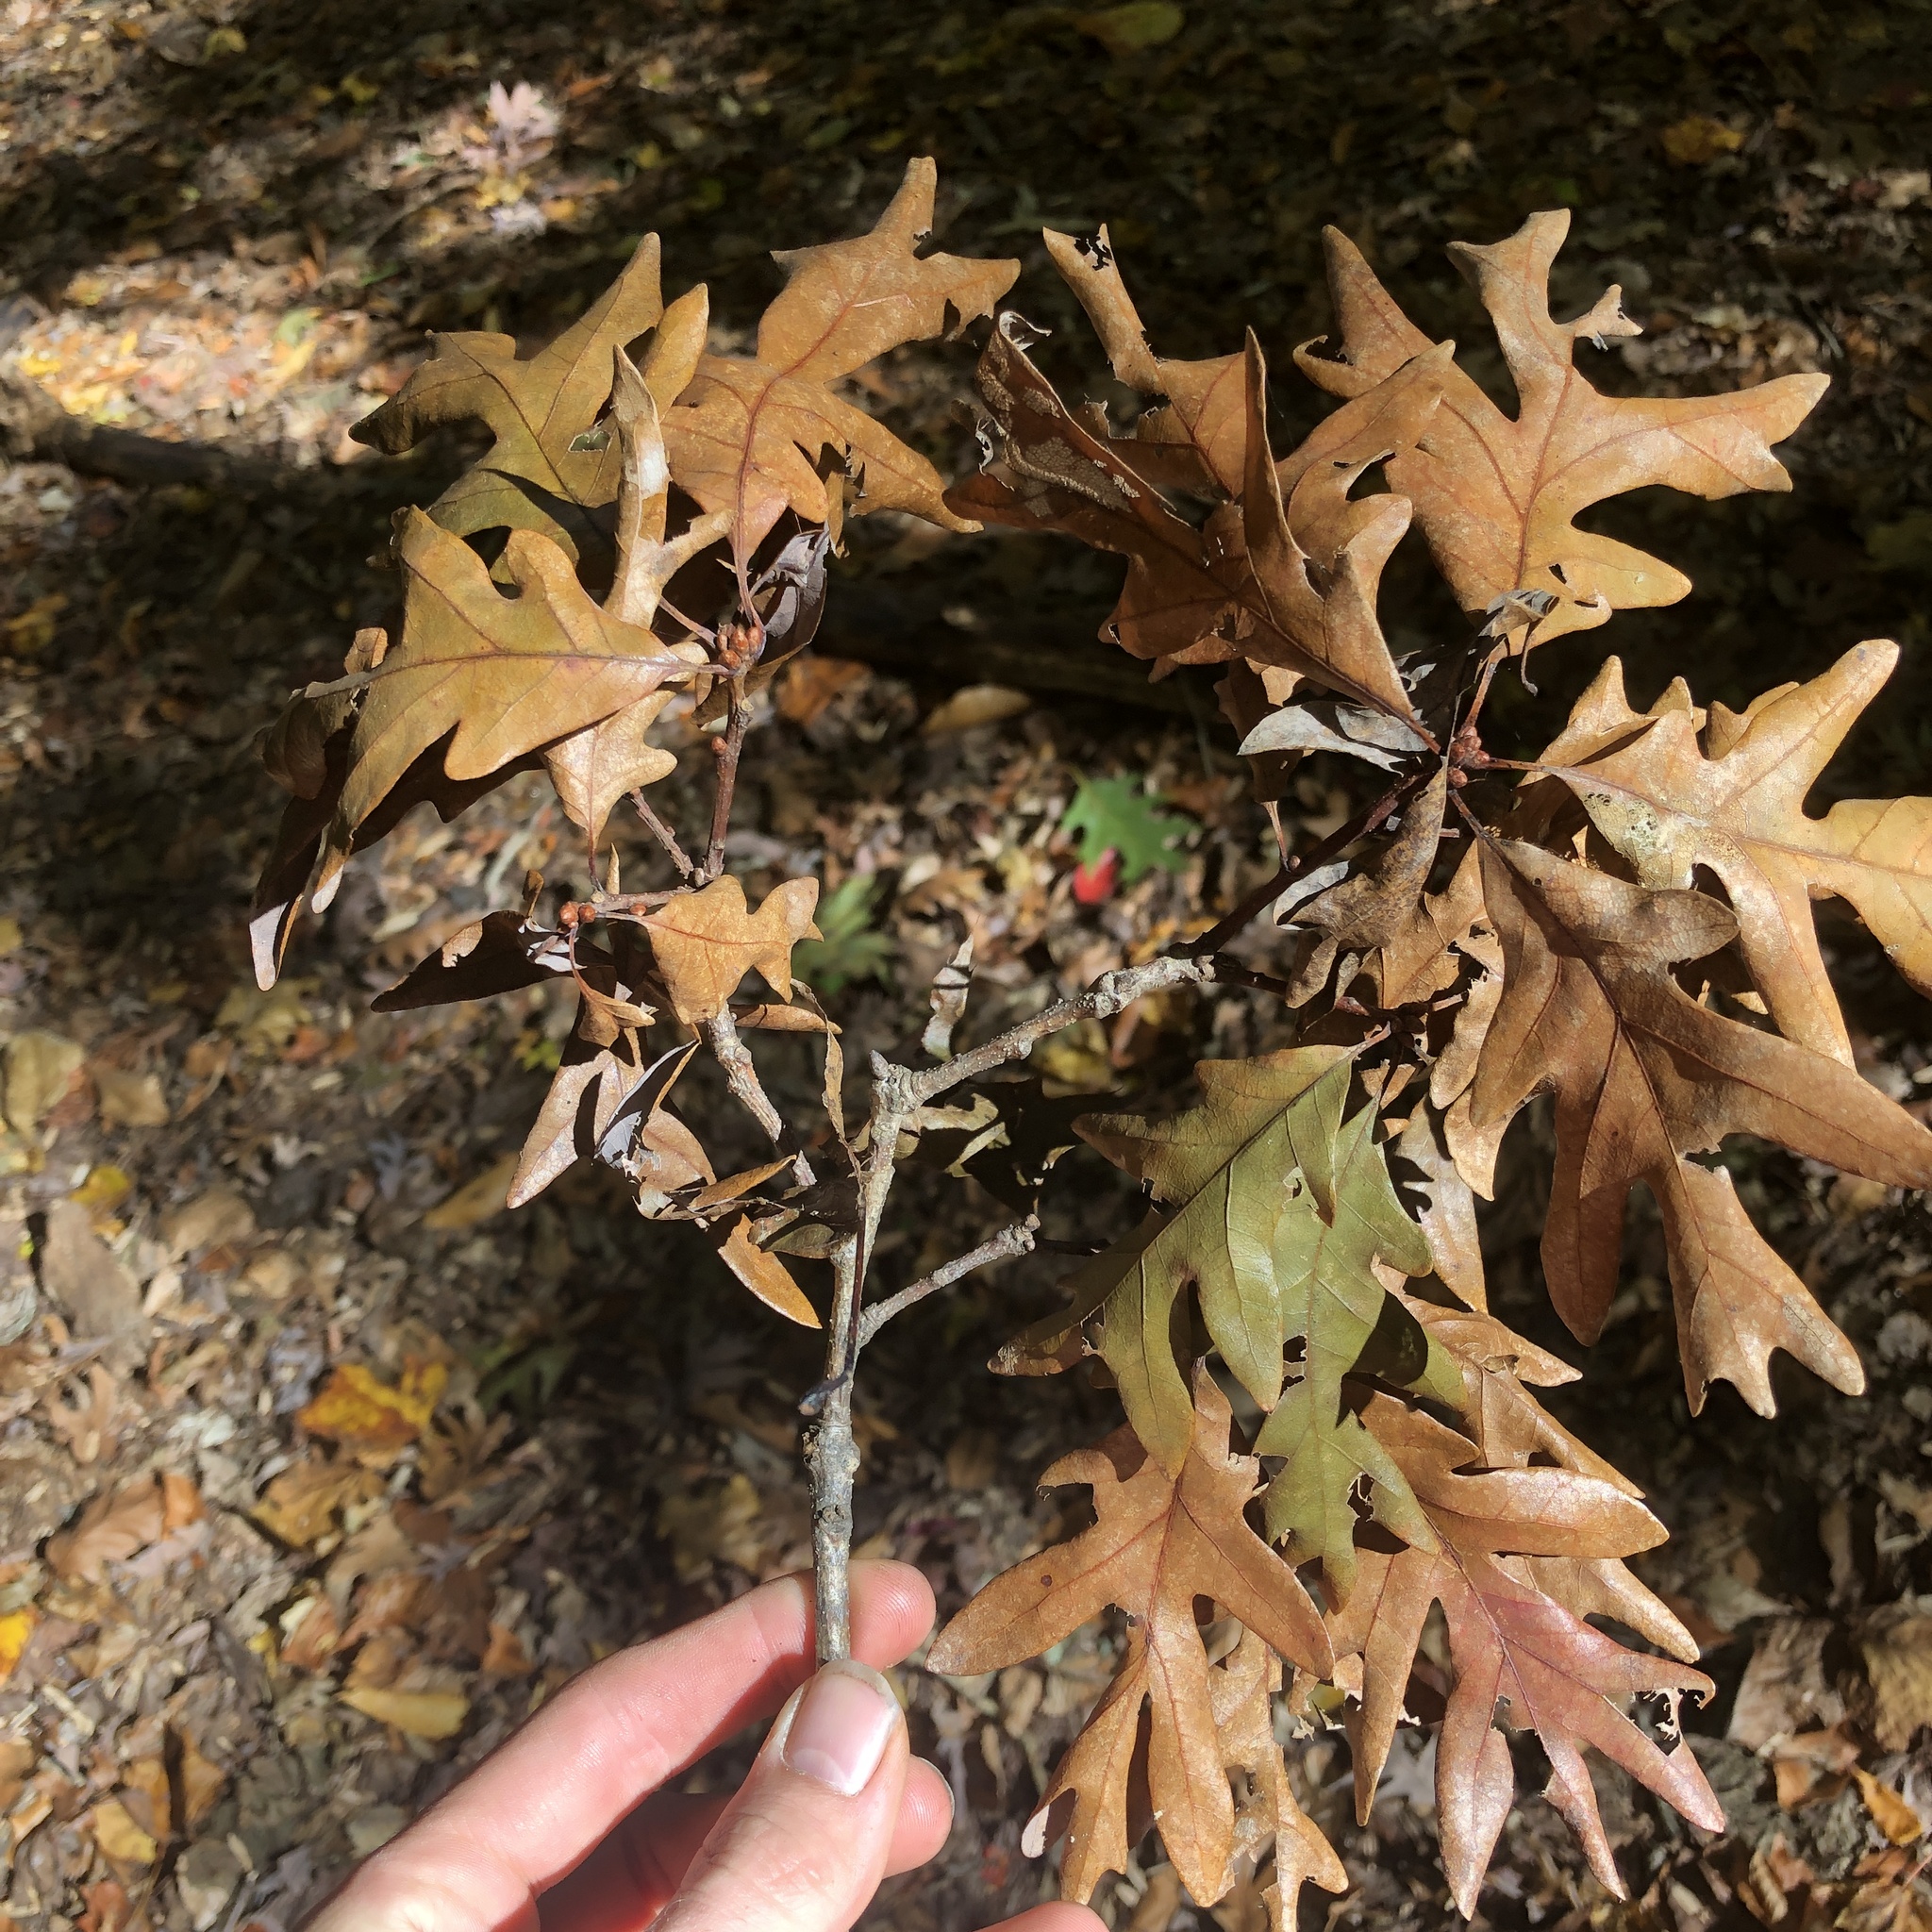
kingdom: Plantae
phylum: Tracheophyta
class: Magnoliopsida
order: Fagales
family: Fagaceae
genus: Quercus
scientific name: Quercus alba
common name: White oak
